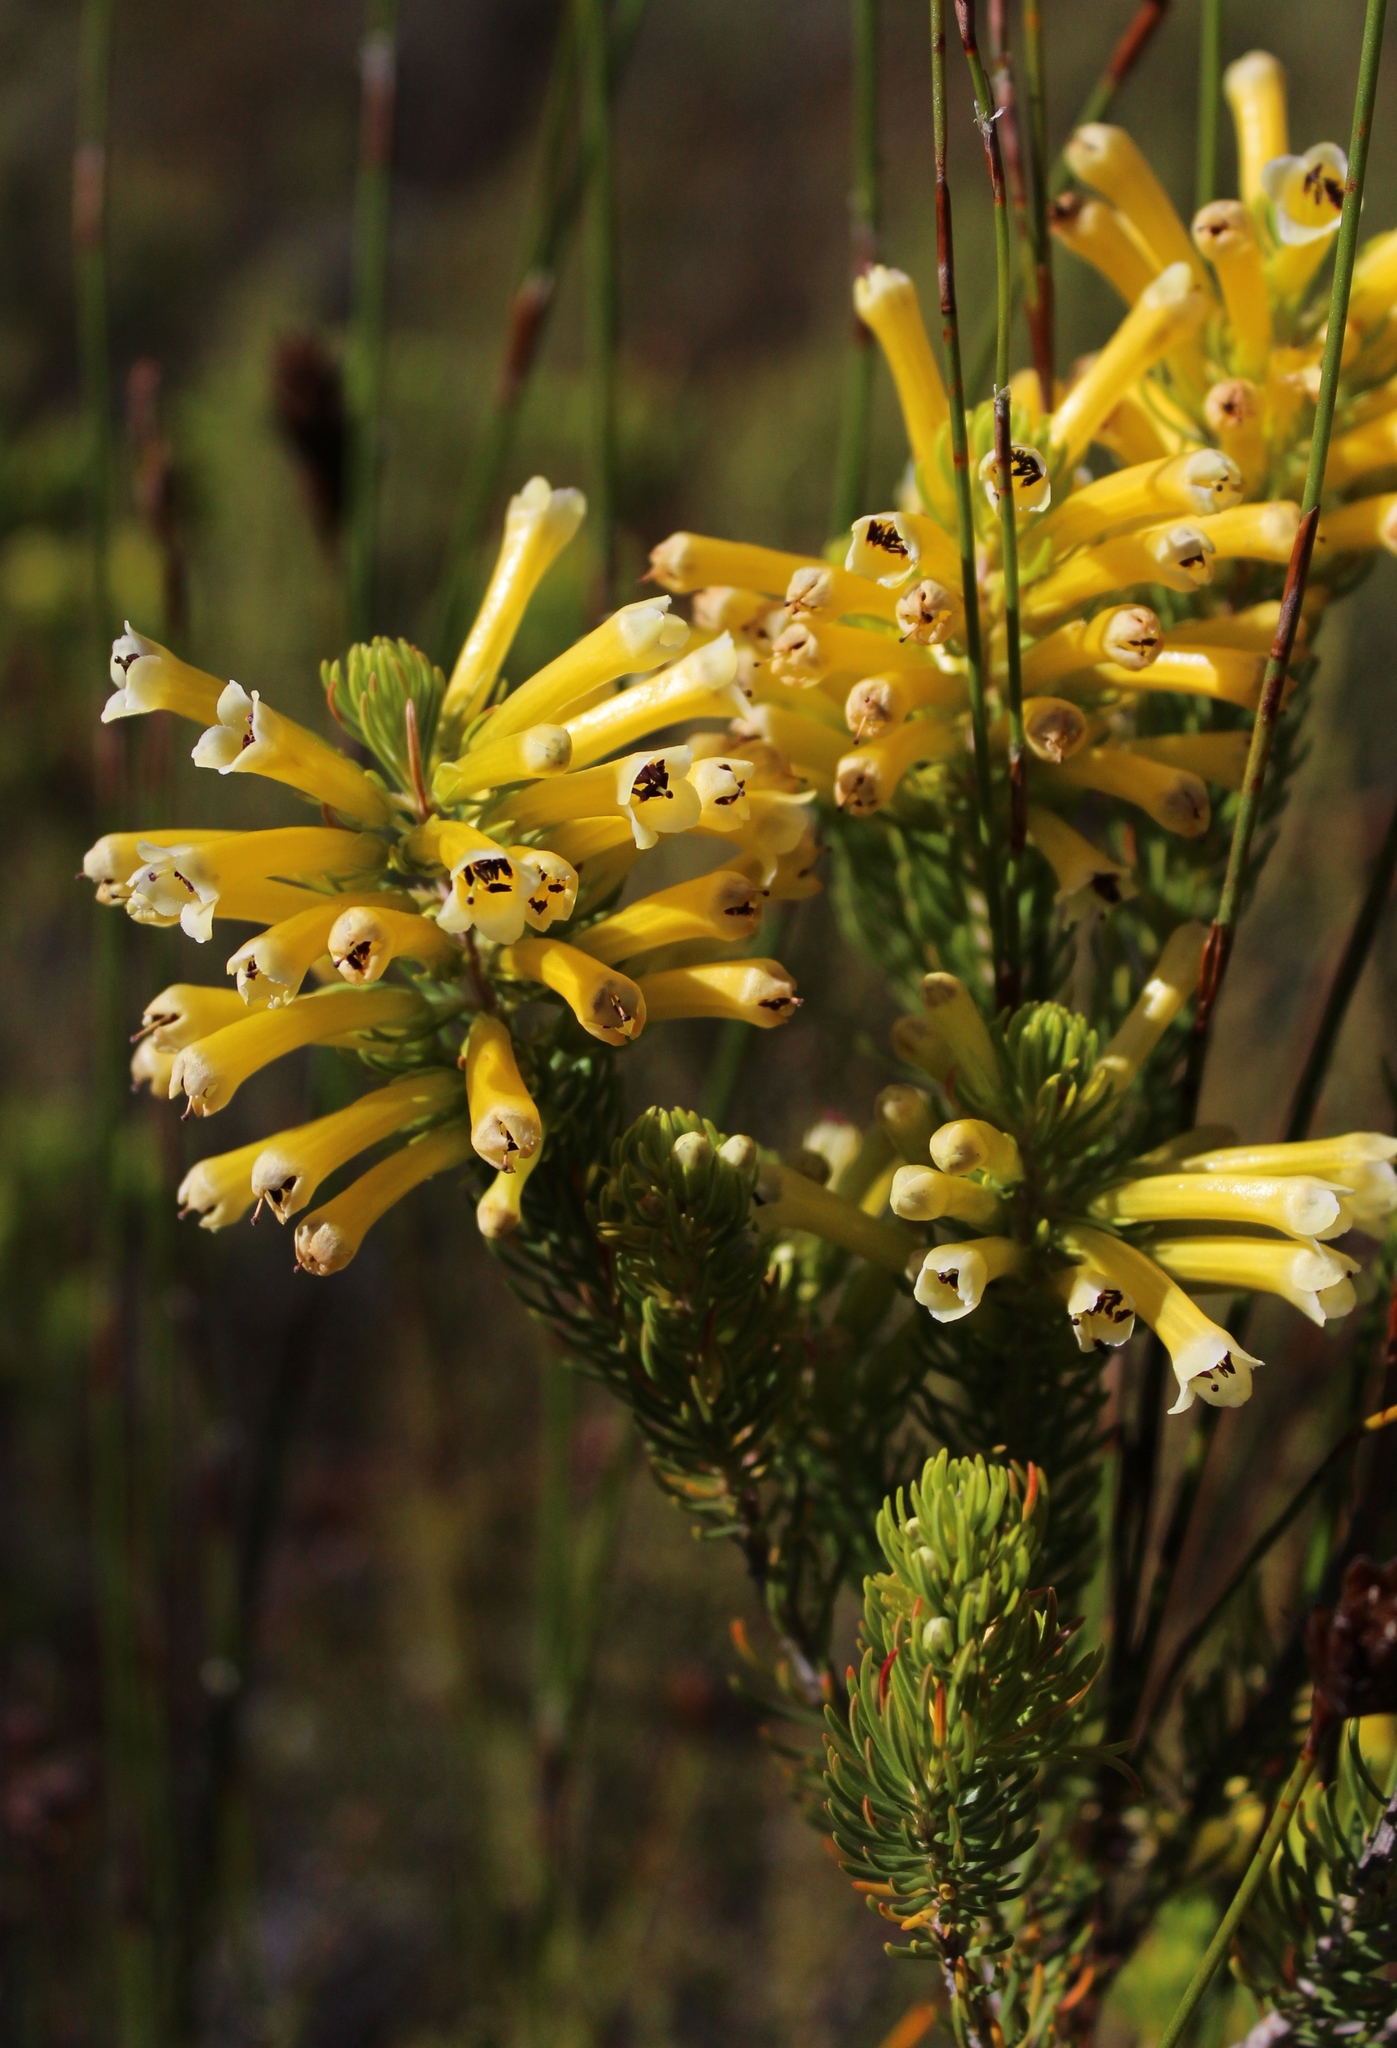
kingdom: Plantae
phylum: Tracheophyta
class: Magnoliopsida
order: Ericales
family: Ericaceae
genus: Erica
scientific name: Erica pinea
